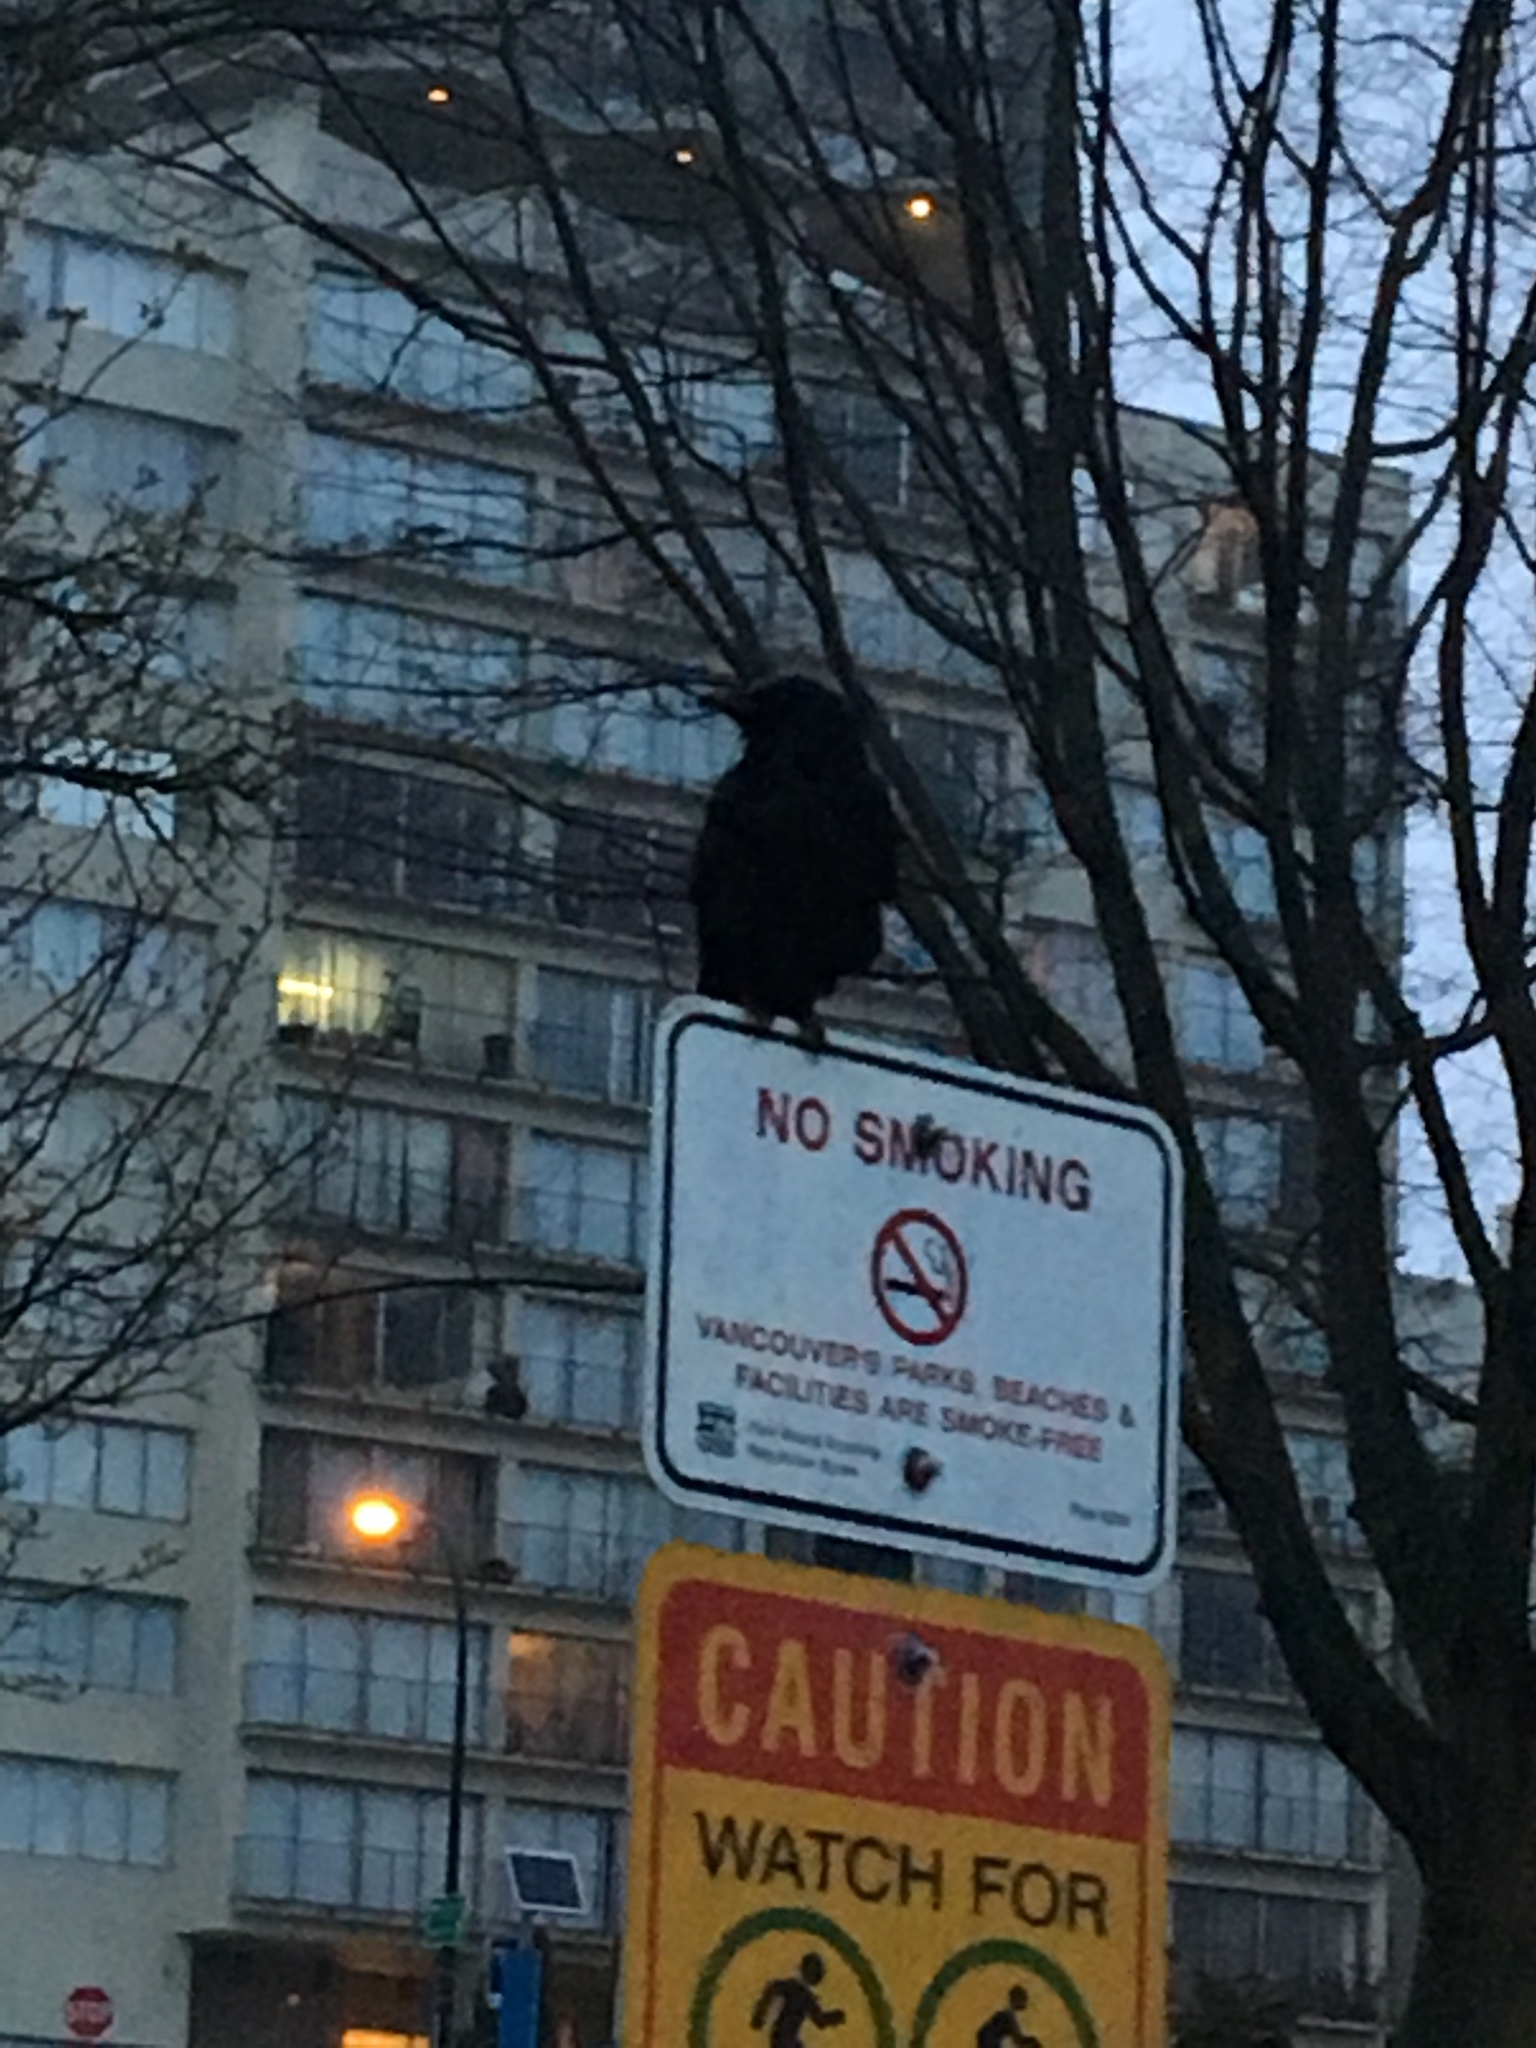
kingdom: Animalia
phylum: Chordata
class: Aves
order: Passeriformes
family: Corvidae
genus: Corvus
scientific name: Corvus brachyrhynchos
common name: American crow
